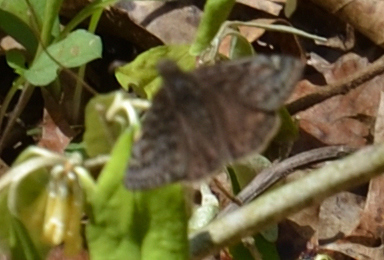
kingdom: Animalia
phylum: Arthropoda
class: Insecta
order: Lepidoptera
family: Hesperiidae
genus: Erynnis
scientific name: Erynnis juvenalis
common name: Juvenal's duskywing
